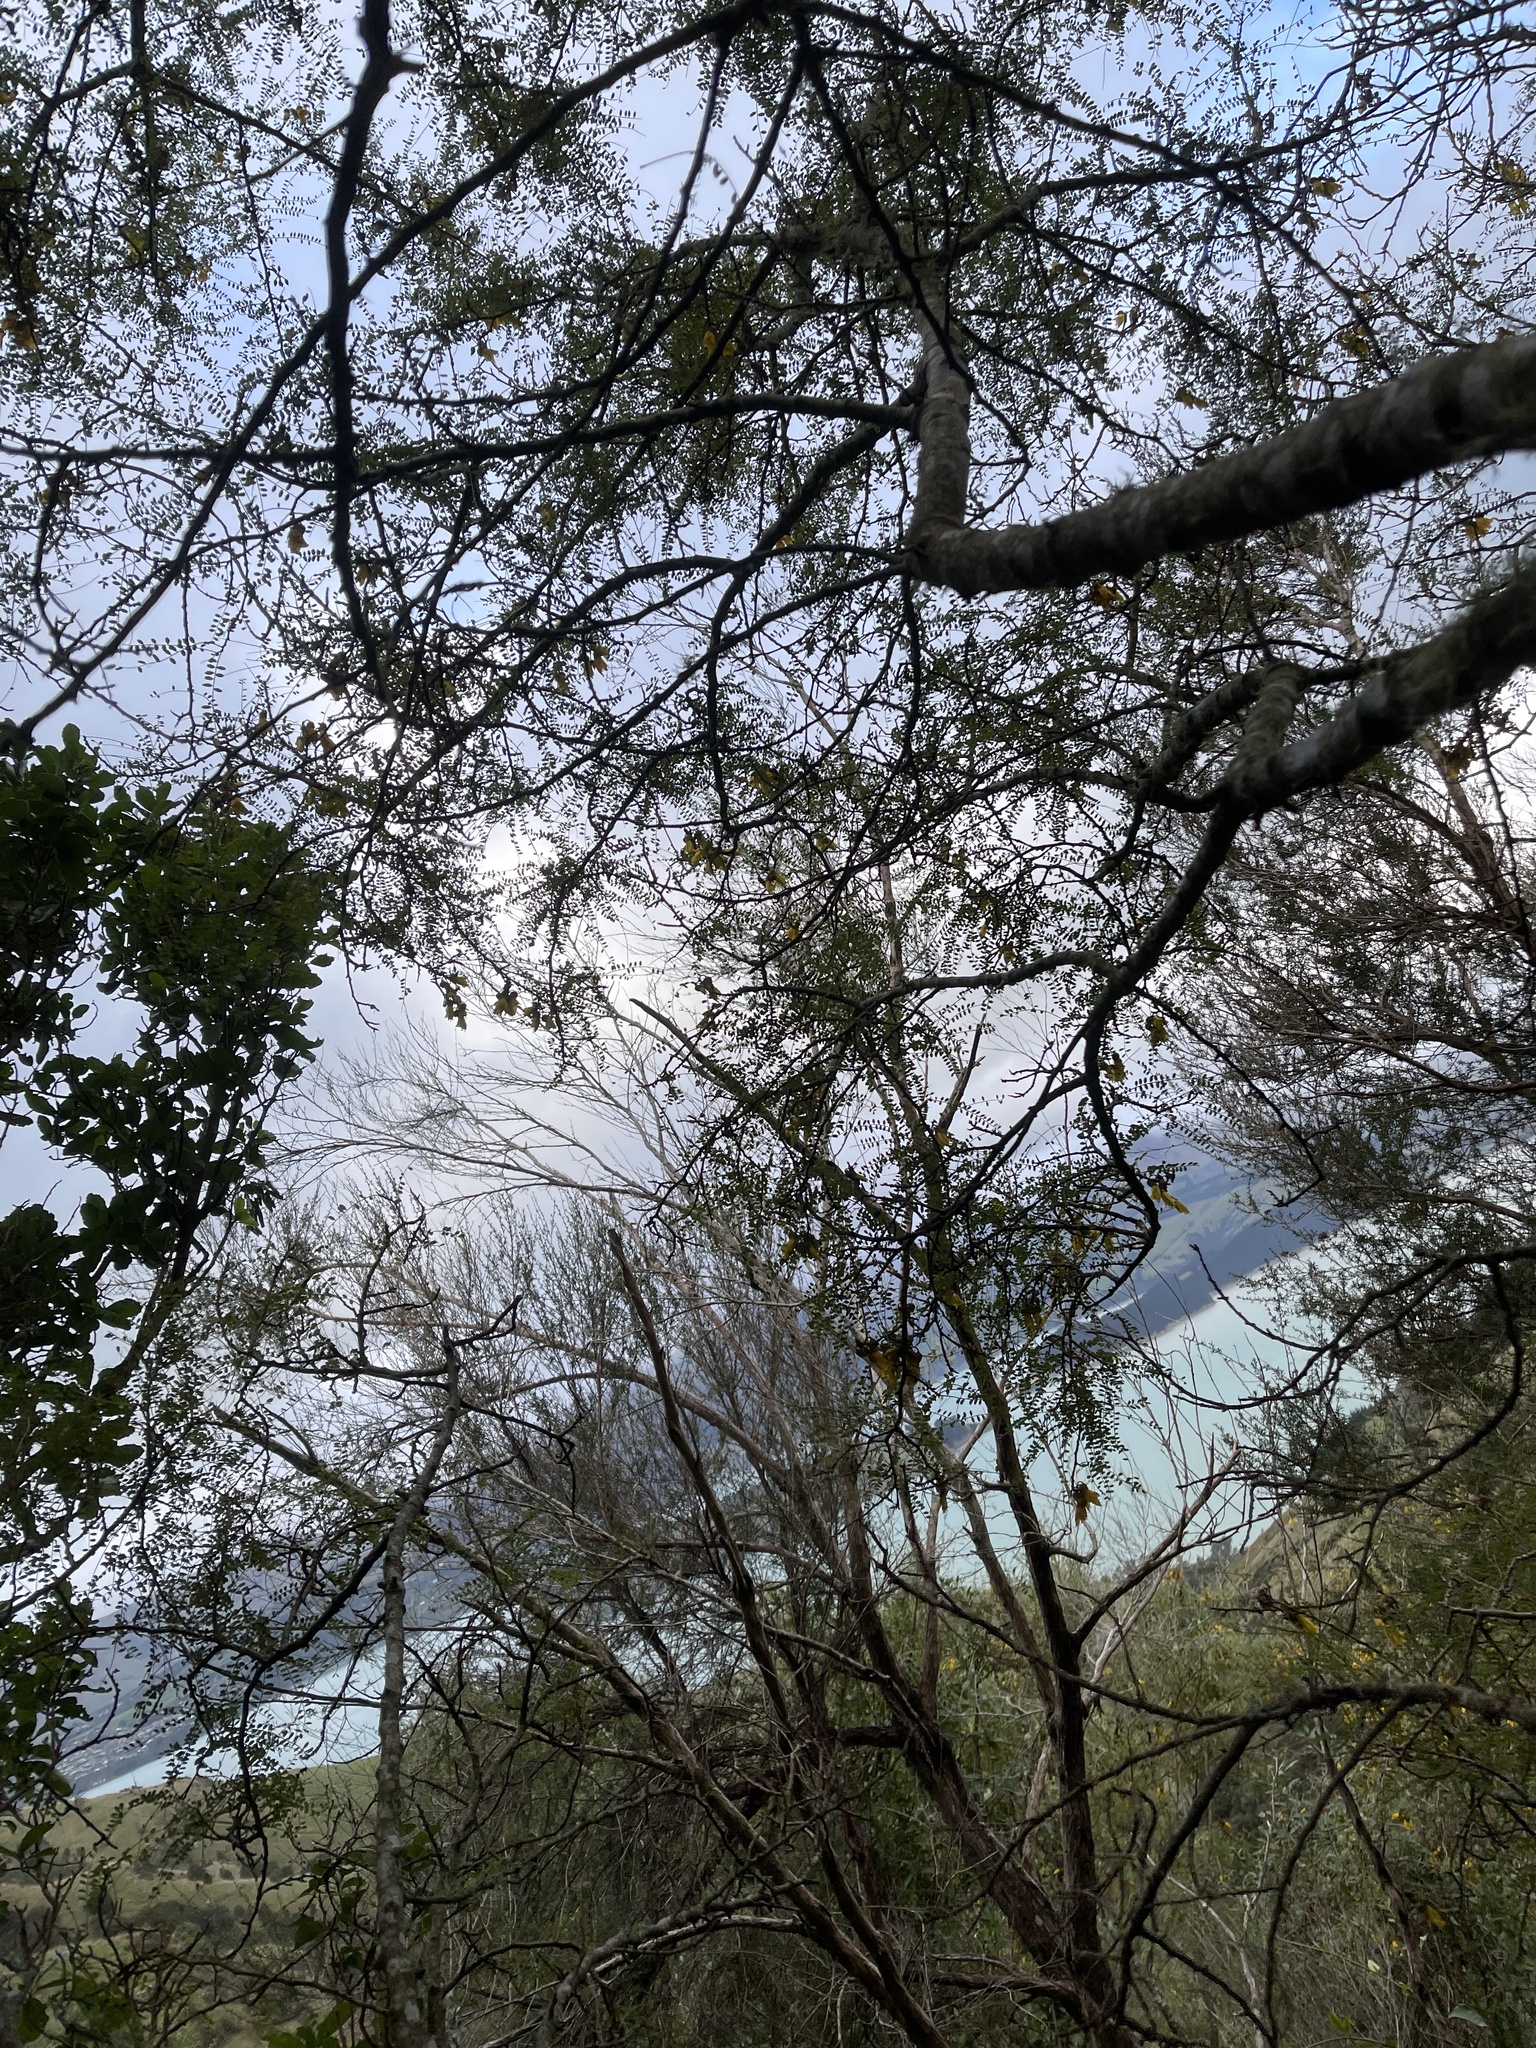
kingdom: Plantae
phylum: Tracheophyta
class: Magnoliopsida
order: Fabales
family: Fabaceae
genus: Sophora
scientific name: Sophora microphylla
